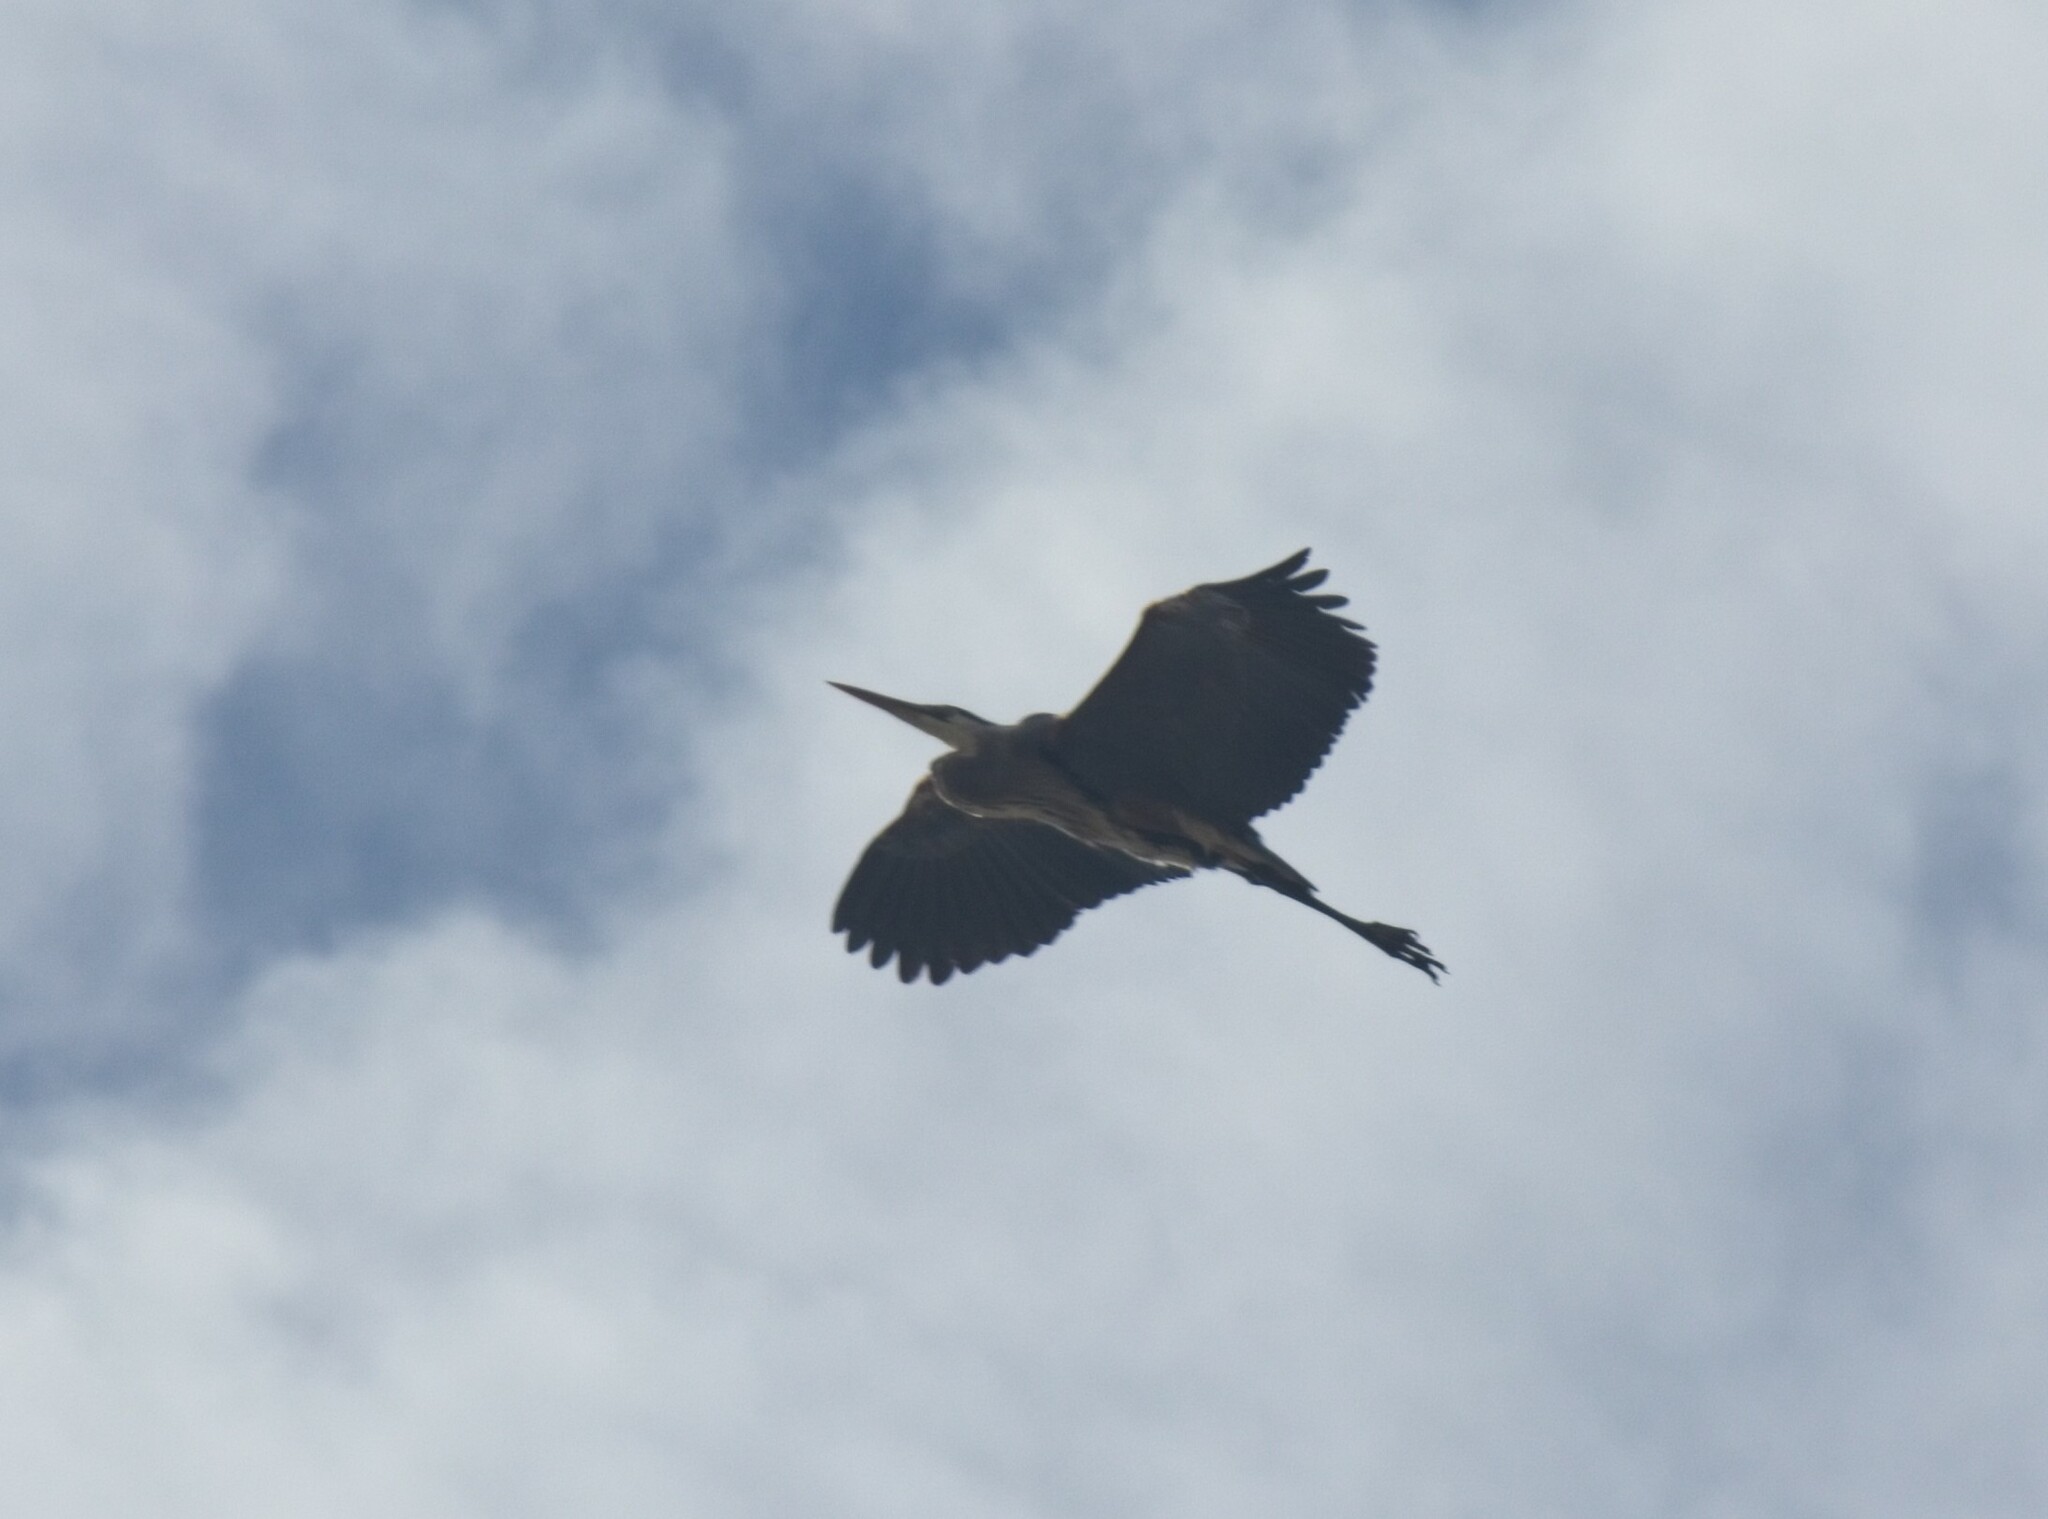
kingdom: Animalia
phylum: Chordata
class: Aves
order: Pelecaniformes
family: Ardeidae
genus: Ardea
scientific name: Ardea herodias
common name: Great blue heron
